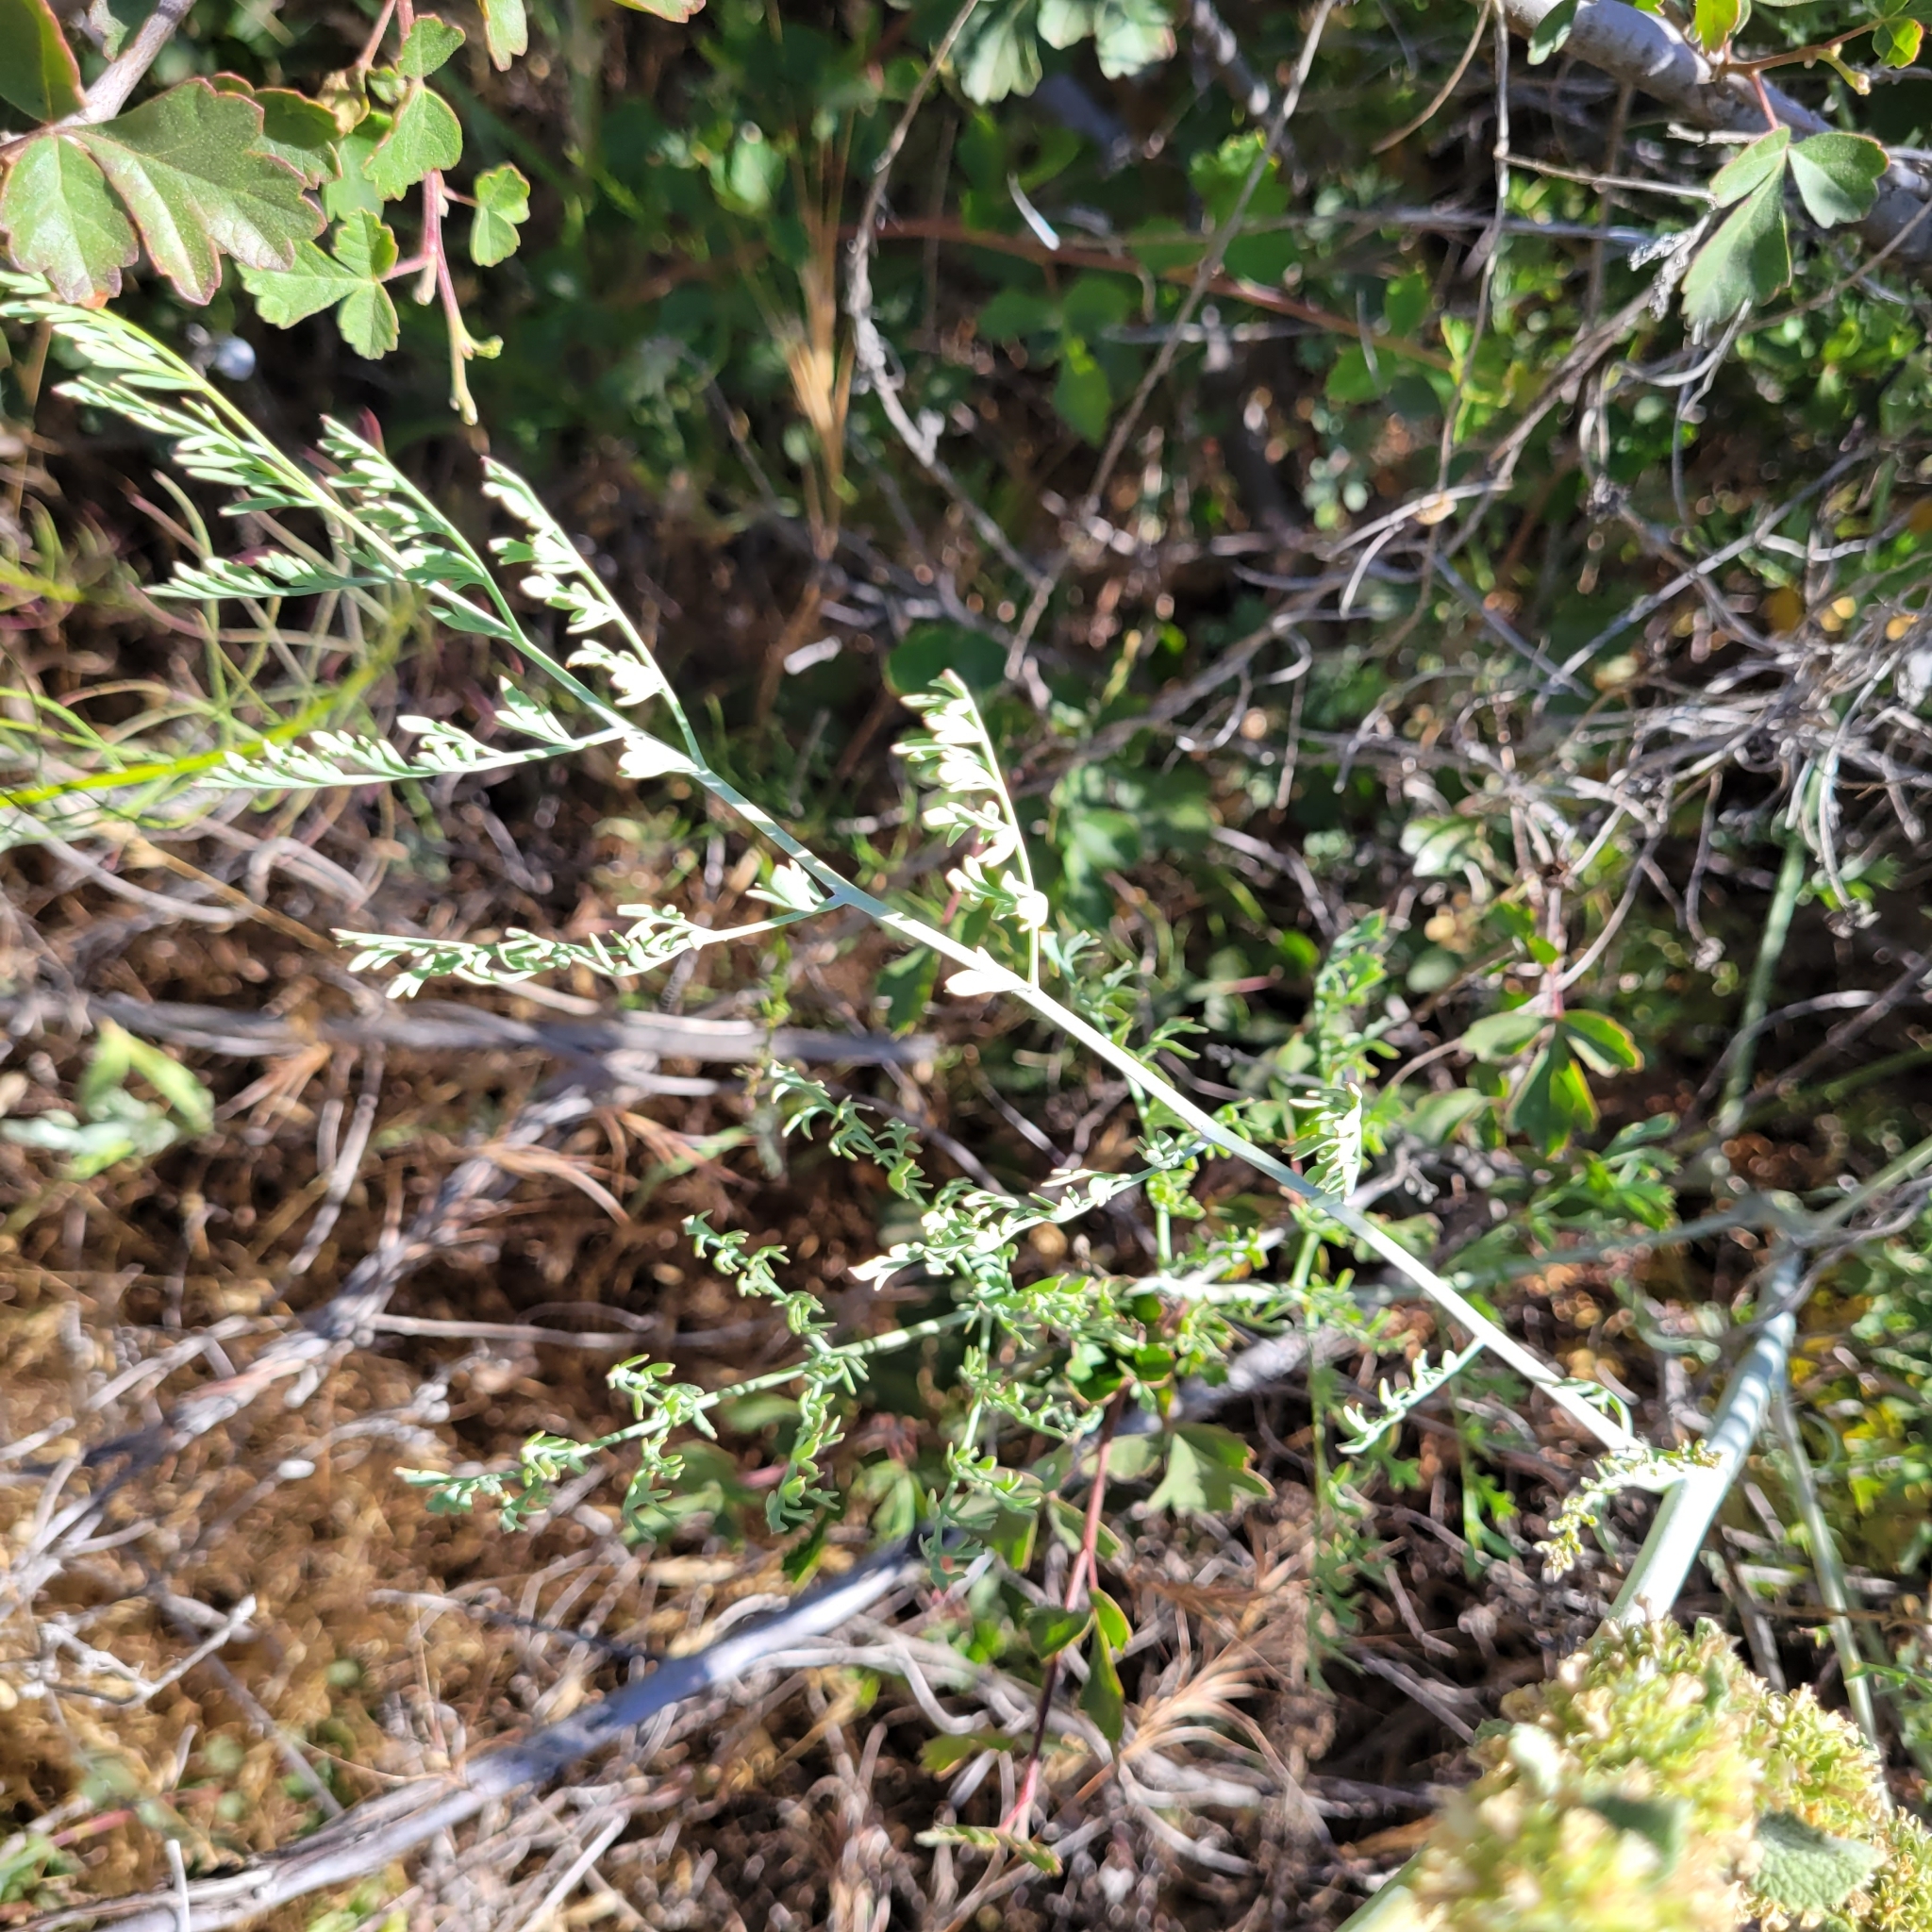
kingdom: Plantae
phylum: Tracheophyta
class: Magnoliopsida
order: Ranunculales
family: Papaveraceae
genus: Ehrendorferia
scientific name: Ehrendorferia chrysantha
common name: Golden eardrops
